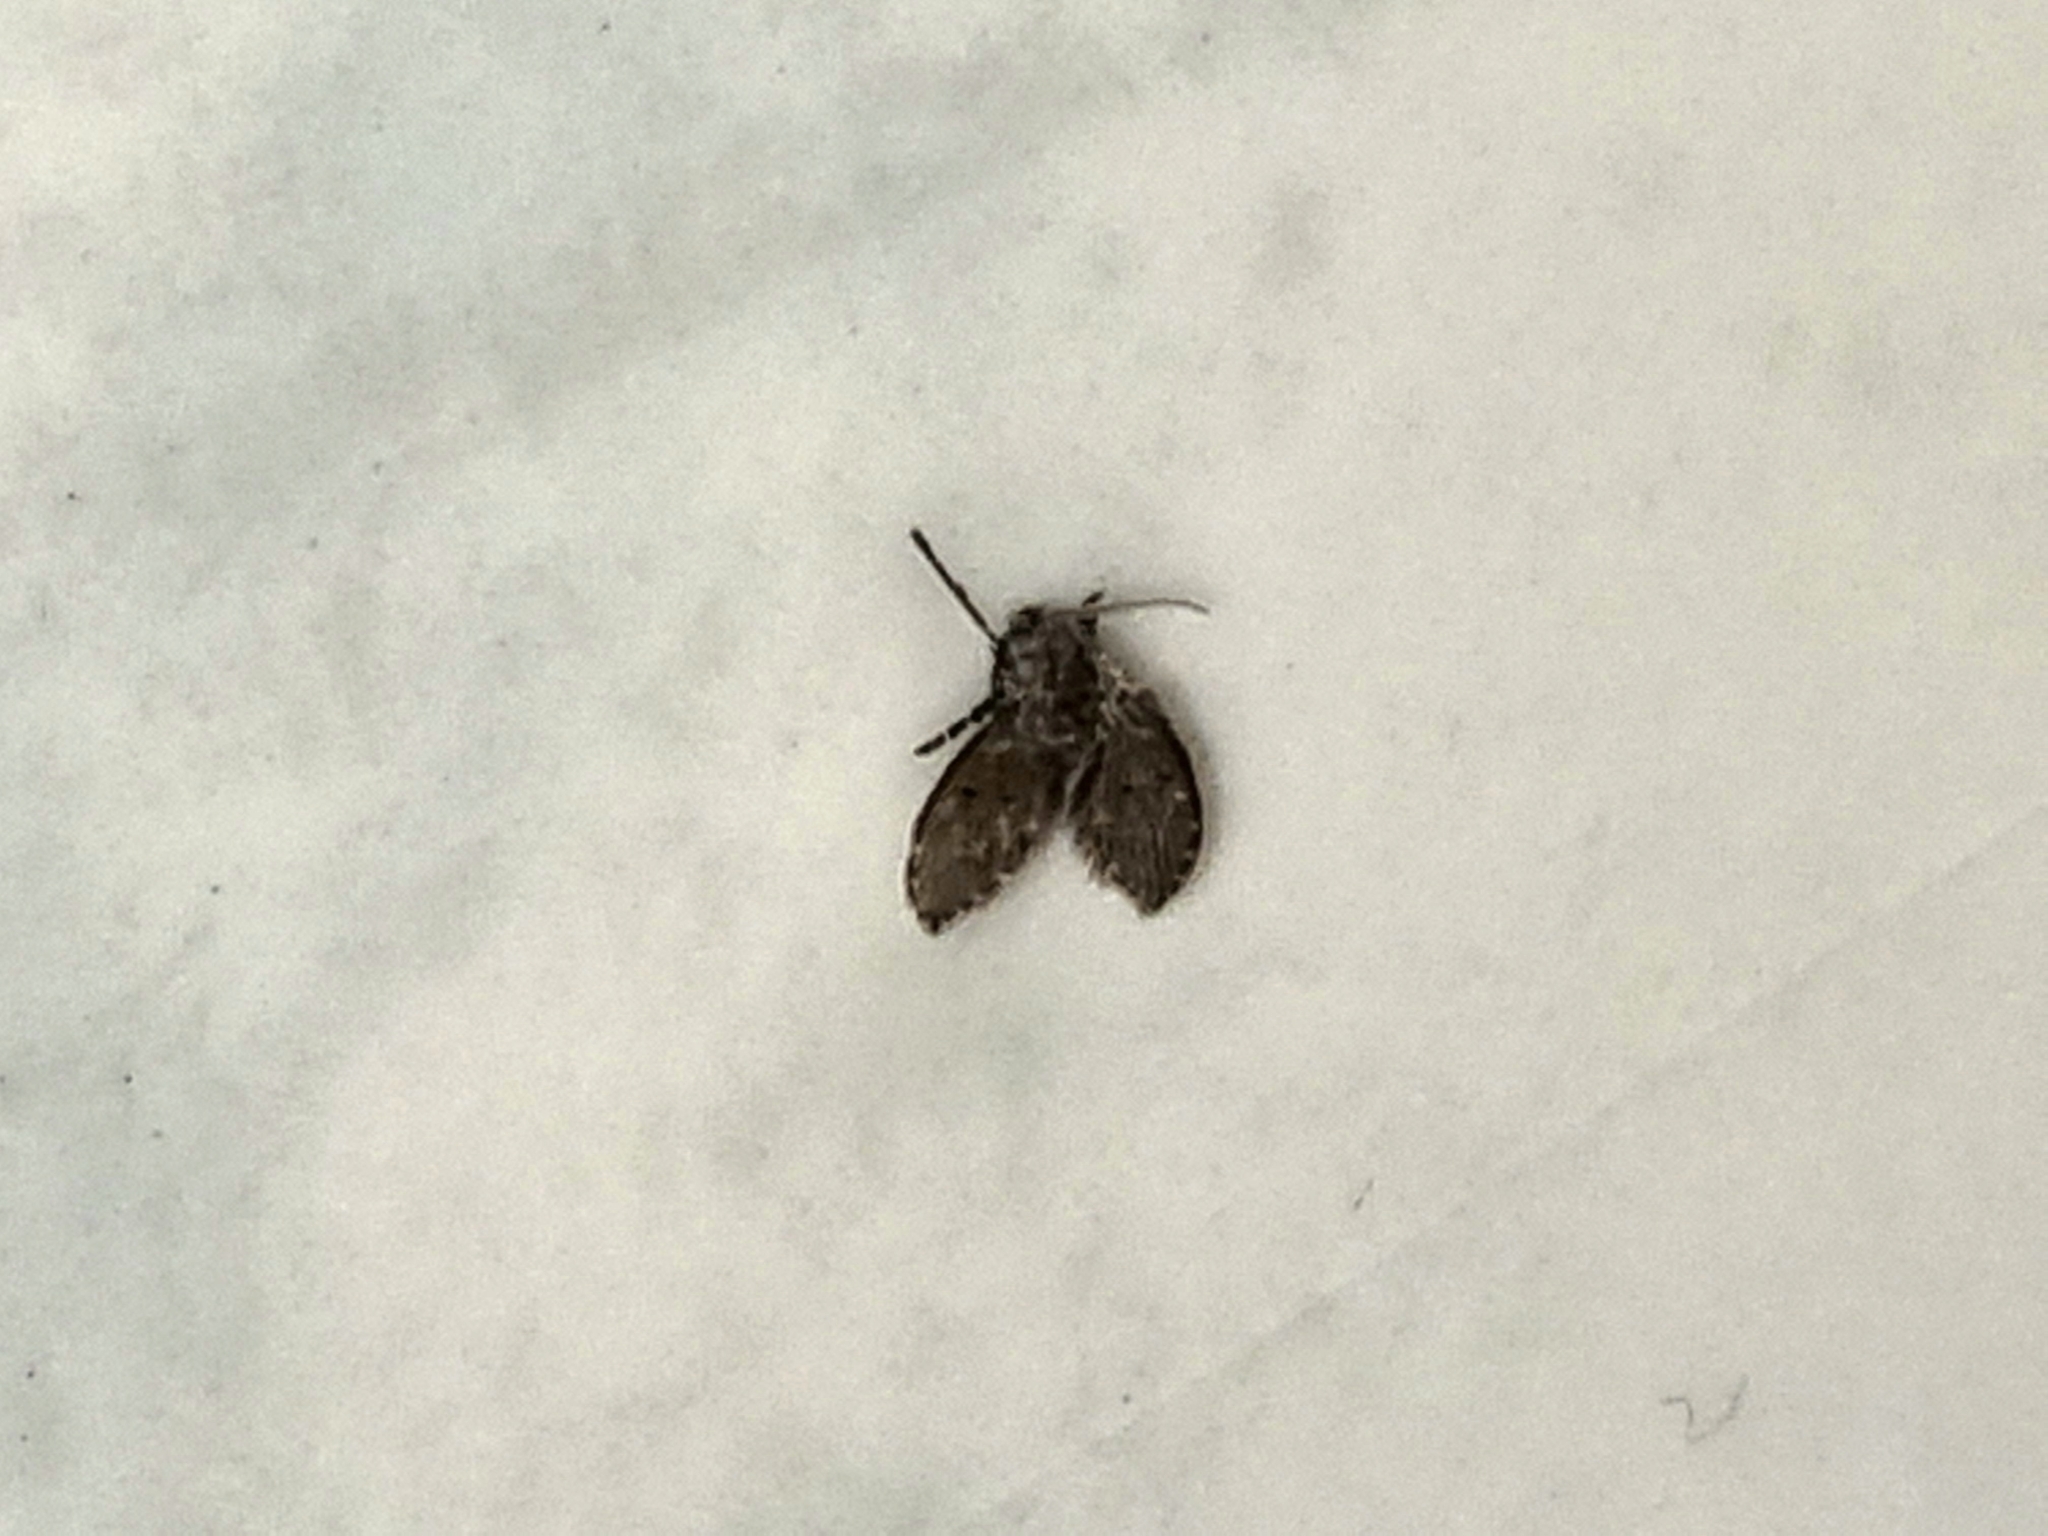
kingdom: Animalia
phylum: Arthropoda
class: Insecta
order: Diptera
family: Psychodidae
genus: Clogmia
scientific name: Clogmia albipunctatus
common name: White-spotted moth fly
